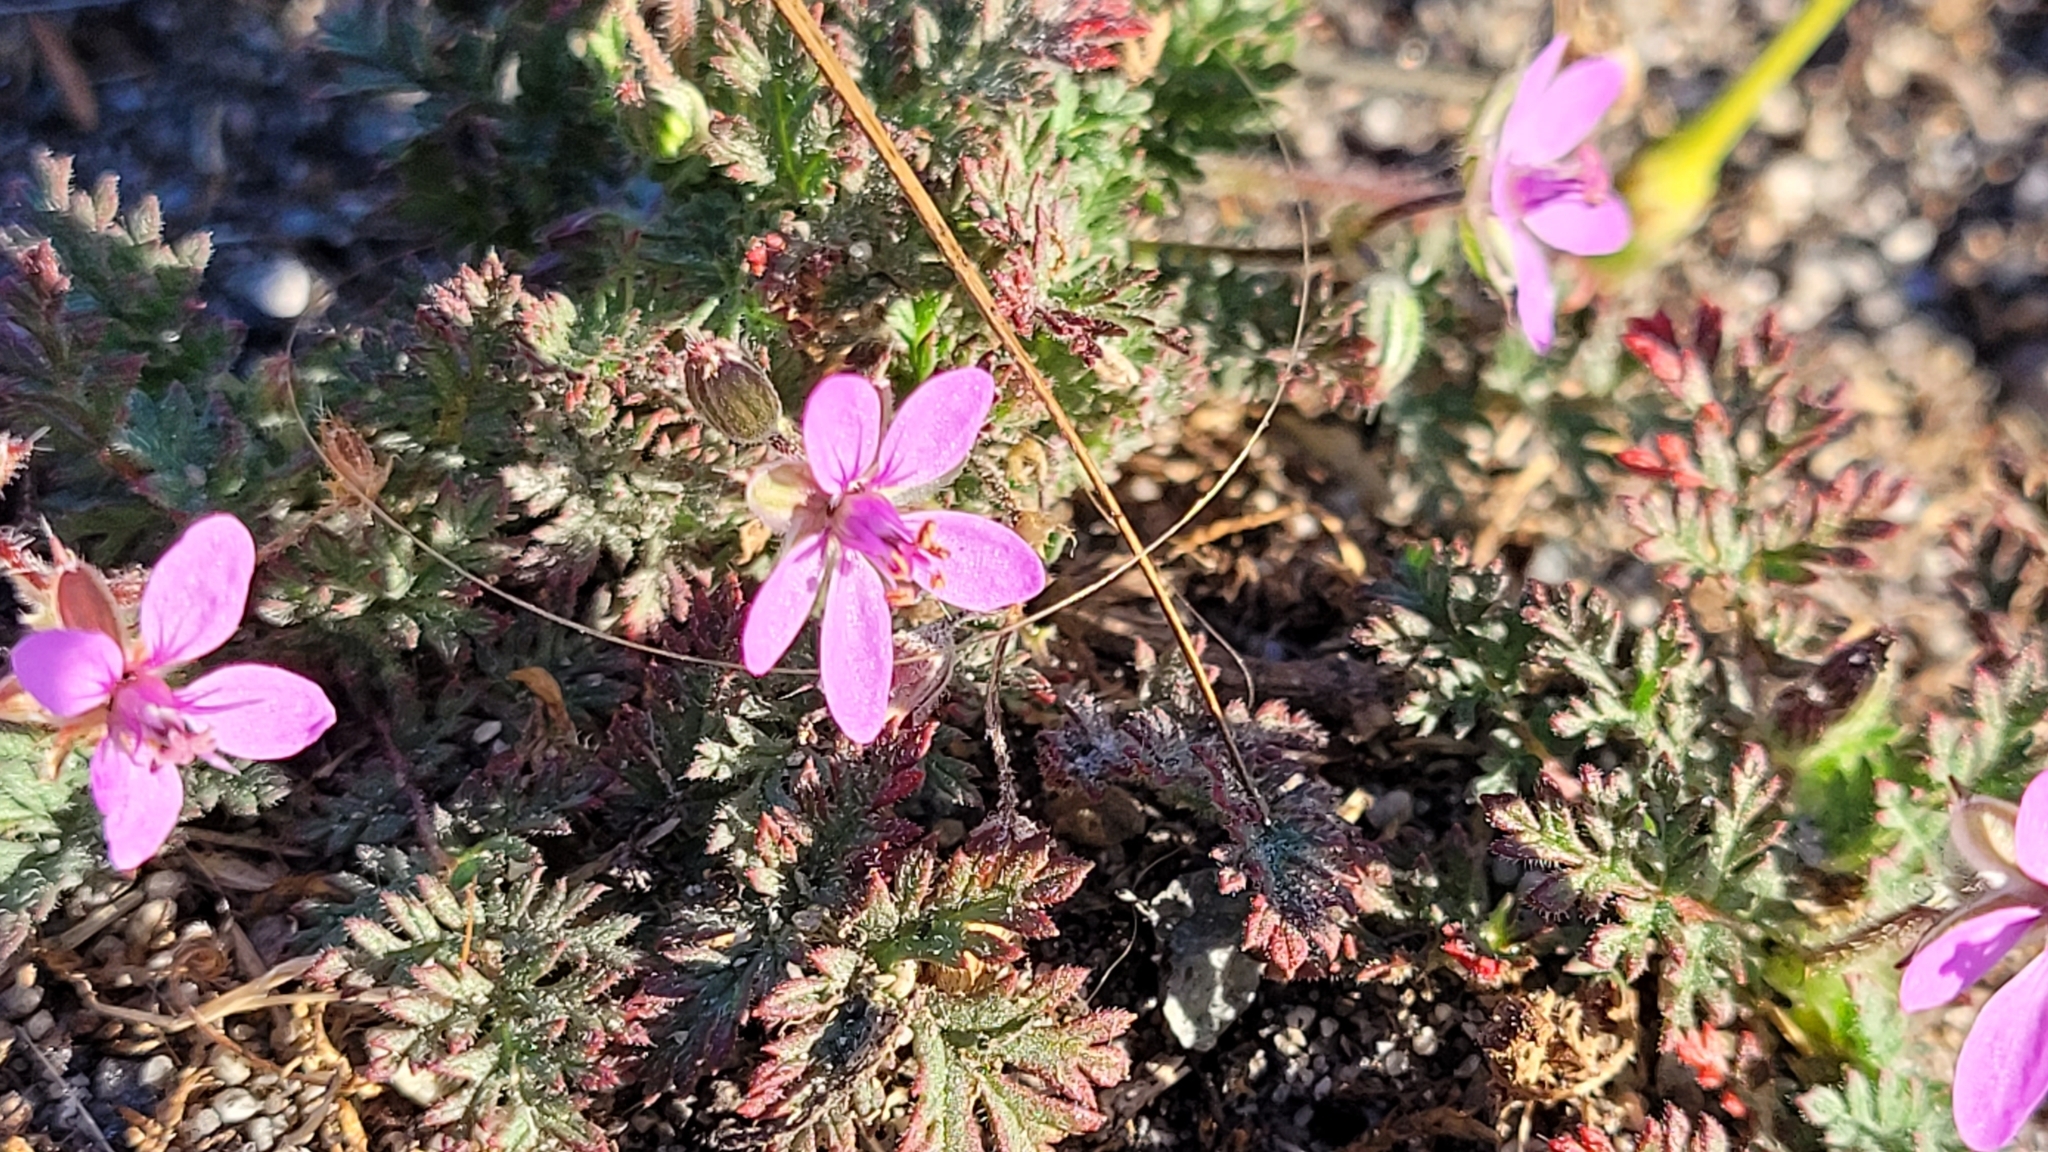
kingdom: Plantae
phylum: Tracheophyta
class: Magnoliopsida
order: Geraniales
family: Geraniaceae
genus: Erodium
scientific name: Erodium cicutarium
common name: Common stork's-bill
